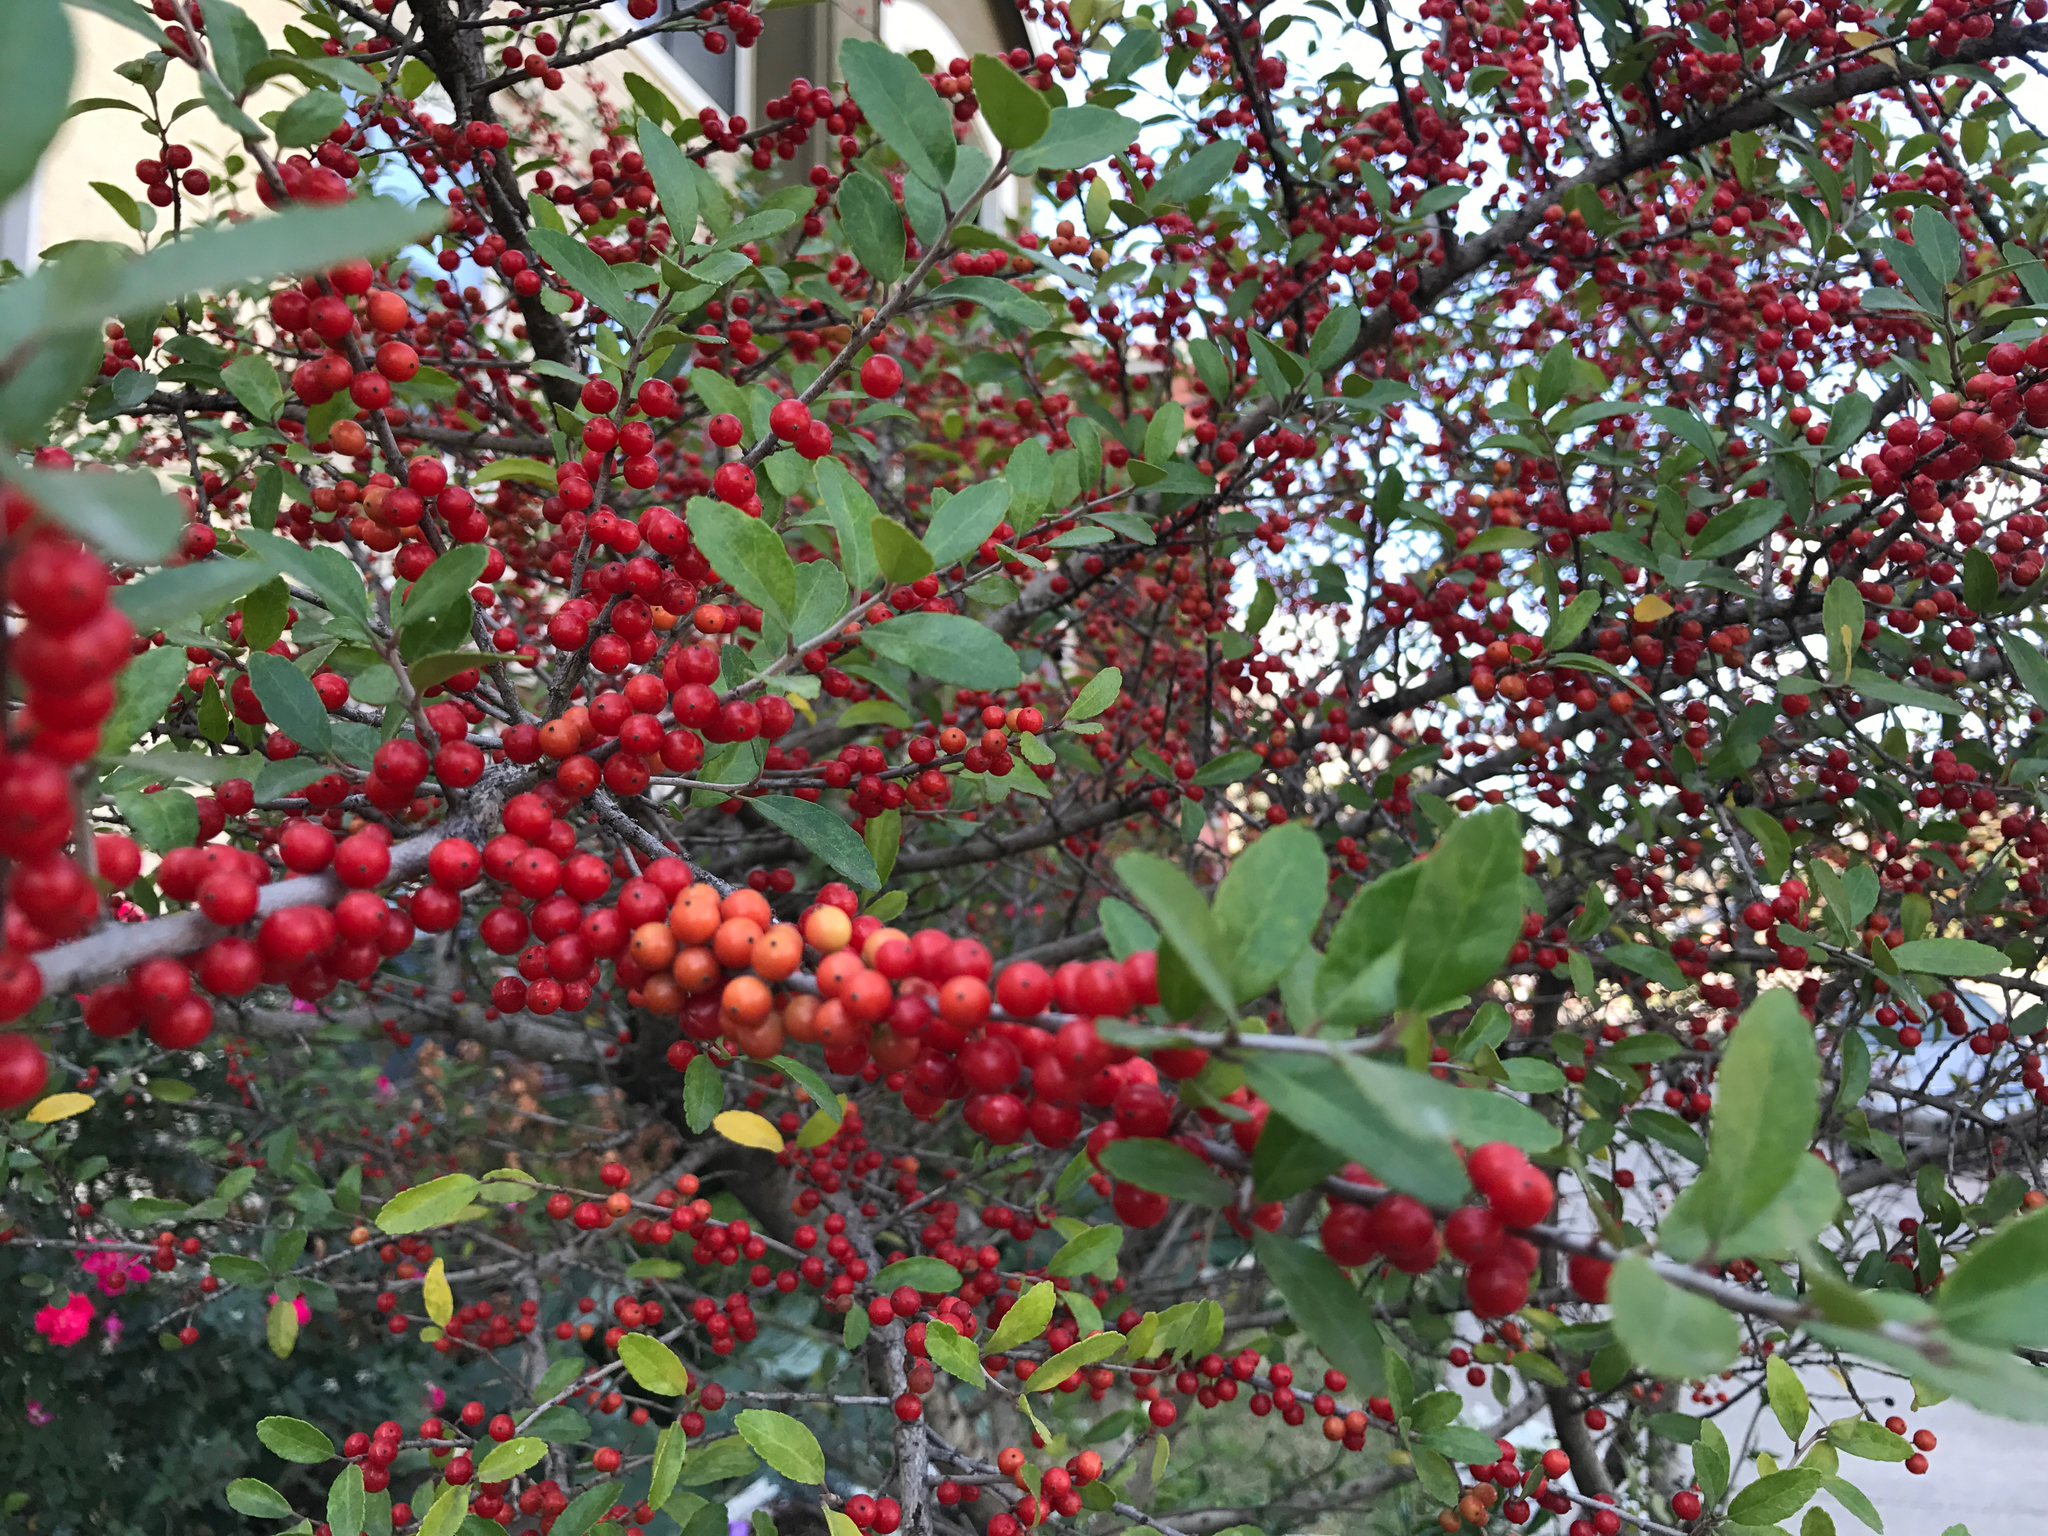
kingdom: Plantae
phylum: Tracheophyta
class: Magnoliopsida
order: Aquifoliales
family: Aquifoliaceae
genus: Ilex
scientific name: Ilex vomitoria
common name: Yaupon holly
